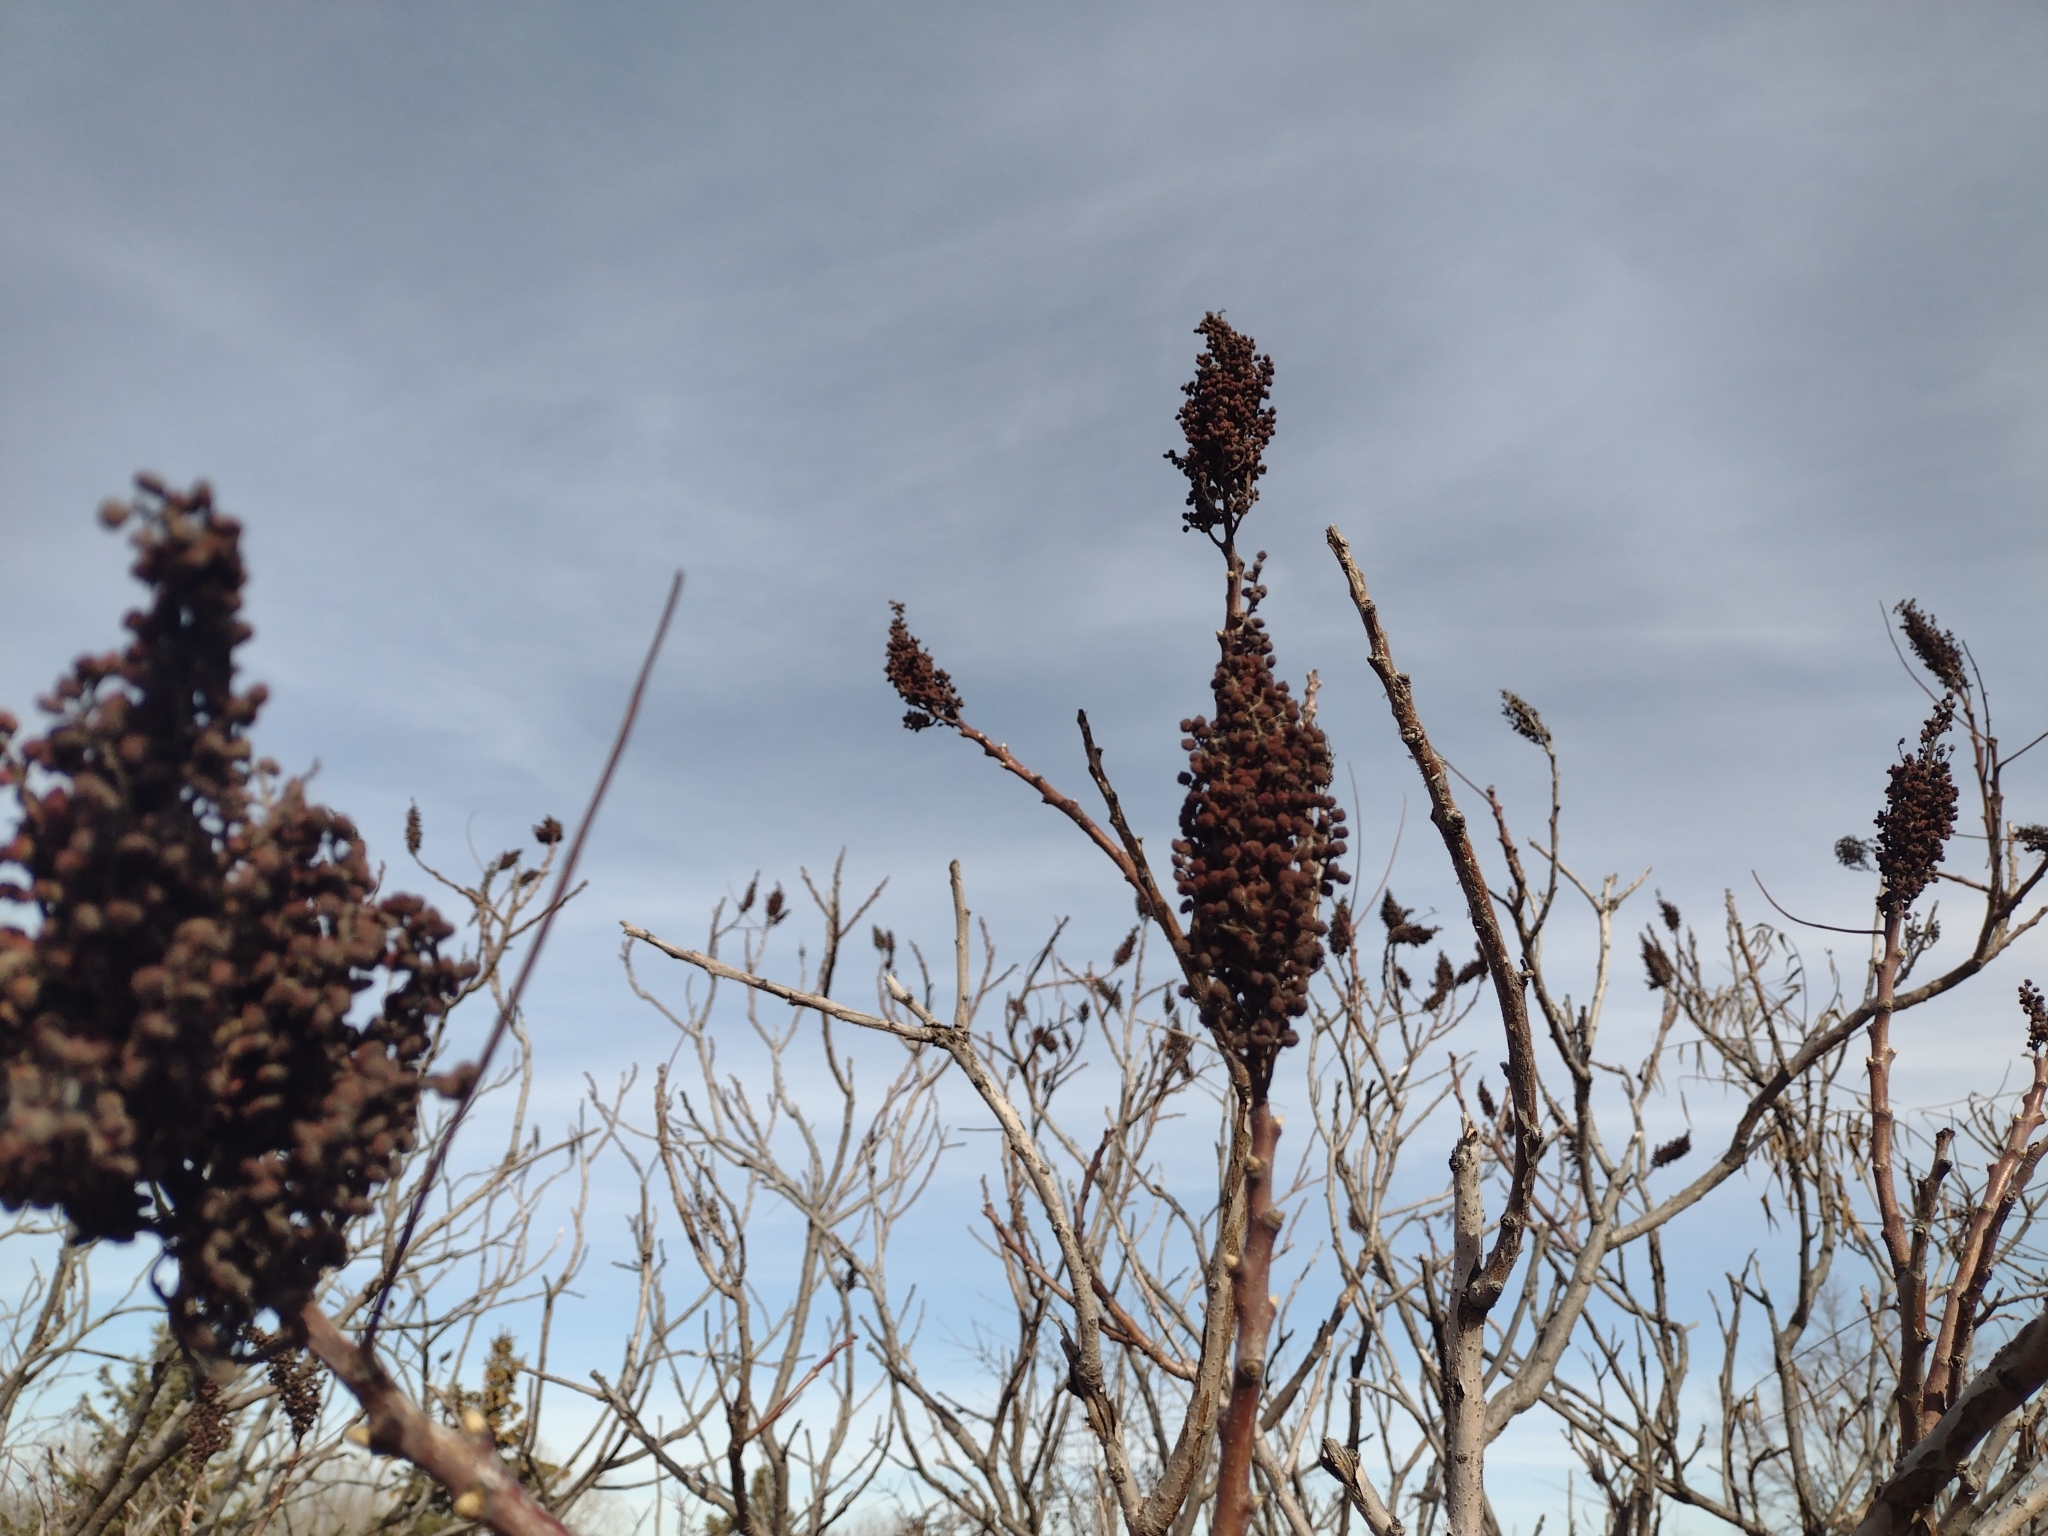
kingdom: Plantae
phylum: Tracheophyta
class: Magnoliopsida
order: Sapindales
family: Anacardiaceae
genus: Rhus
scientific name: Rhus glabra
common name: Scarlet sumac
